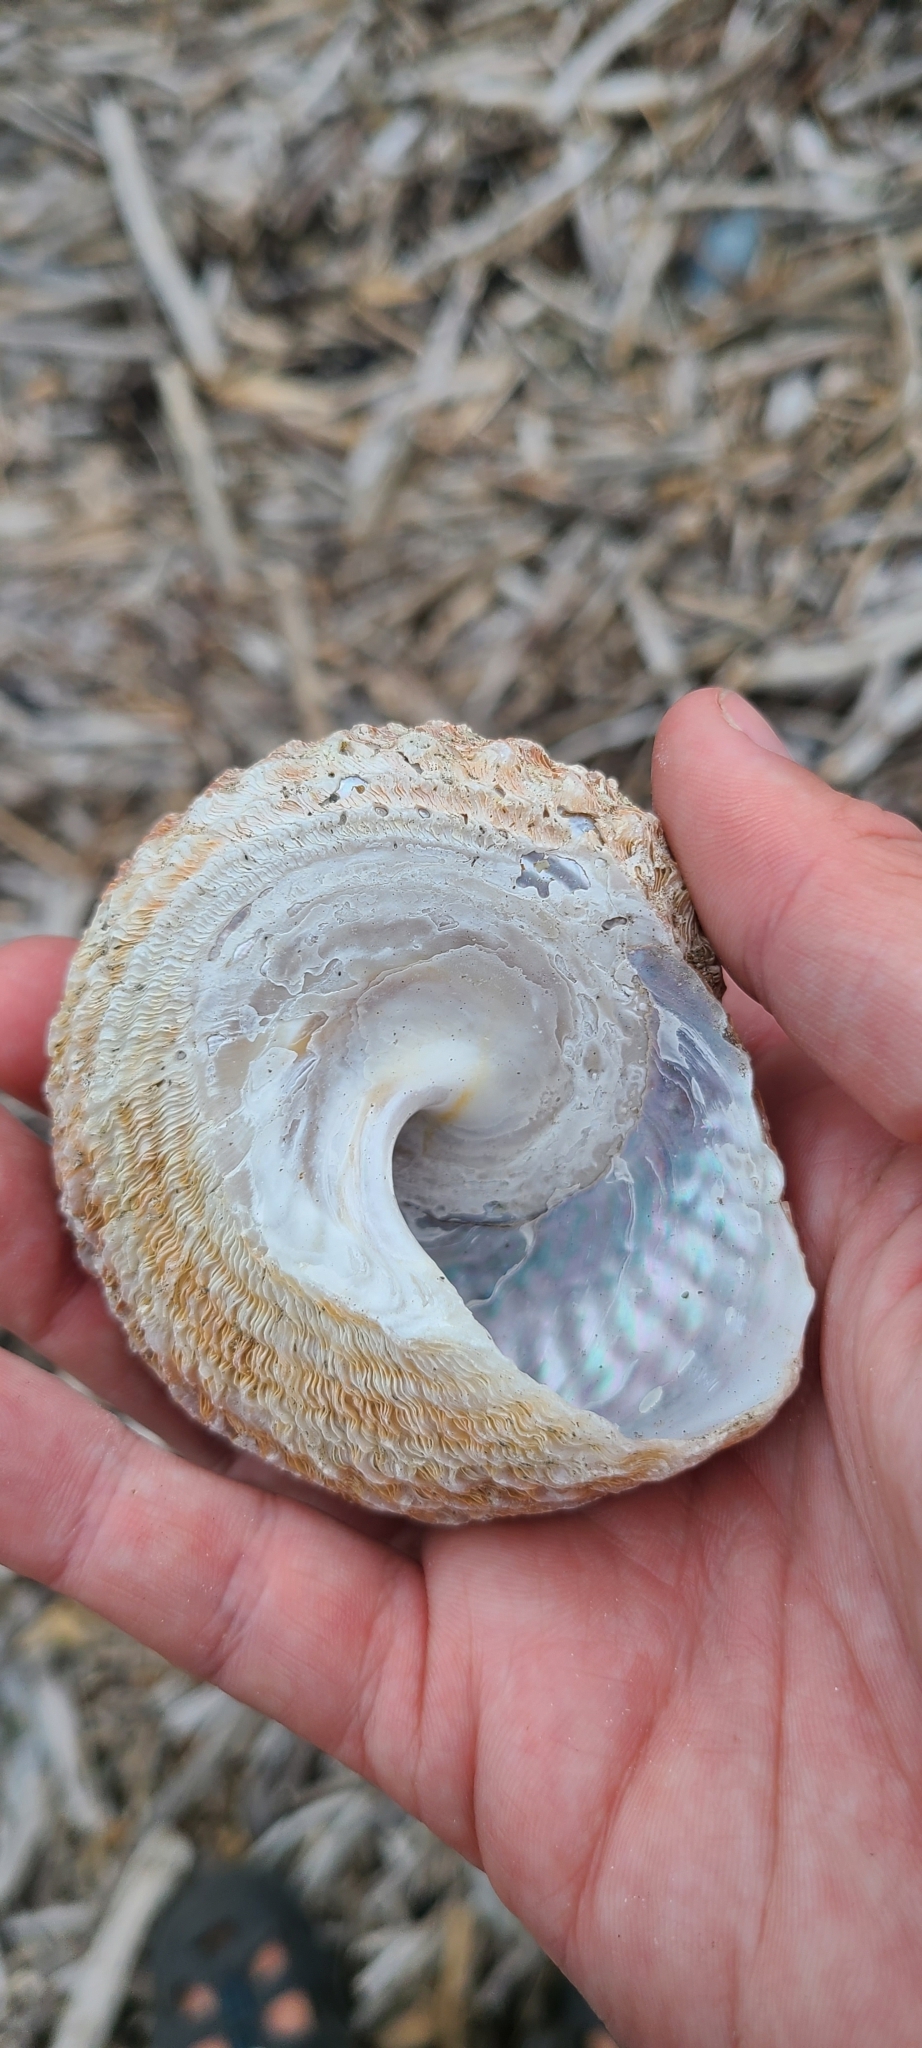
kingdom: Animalia
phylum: Mollusca
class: Gastropoda
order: Trochida
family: Turbinidae
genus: Cookia
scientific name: Cookia sulcata
